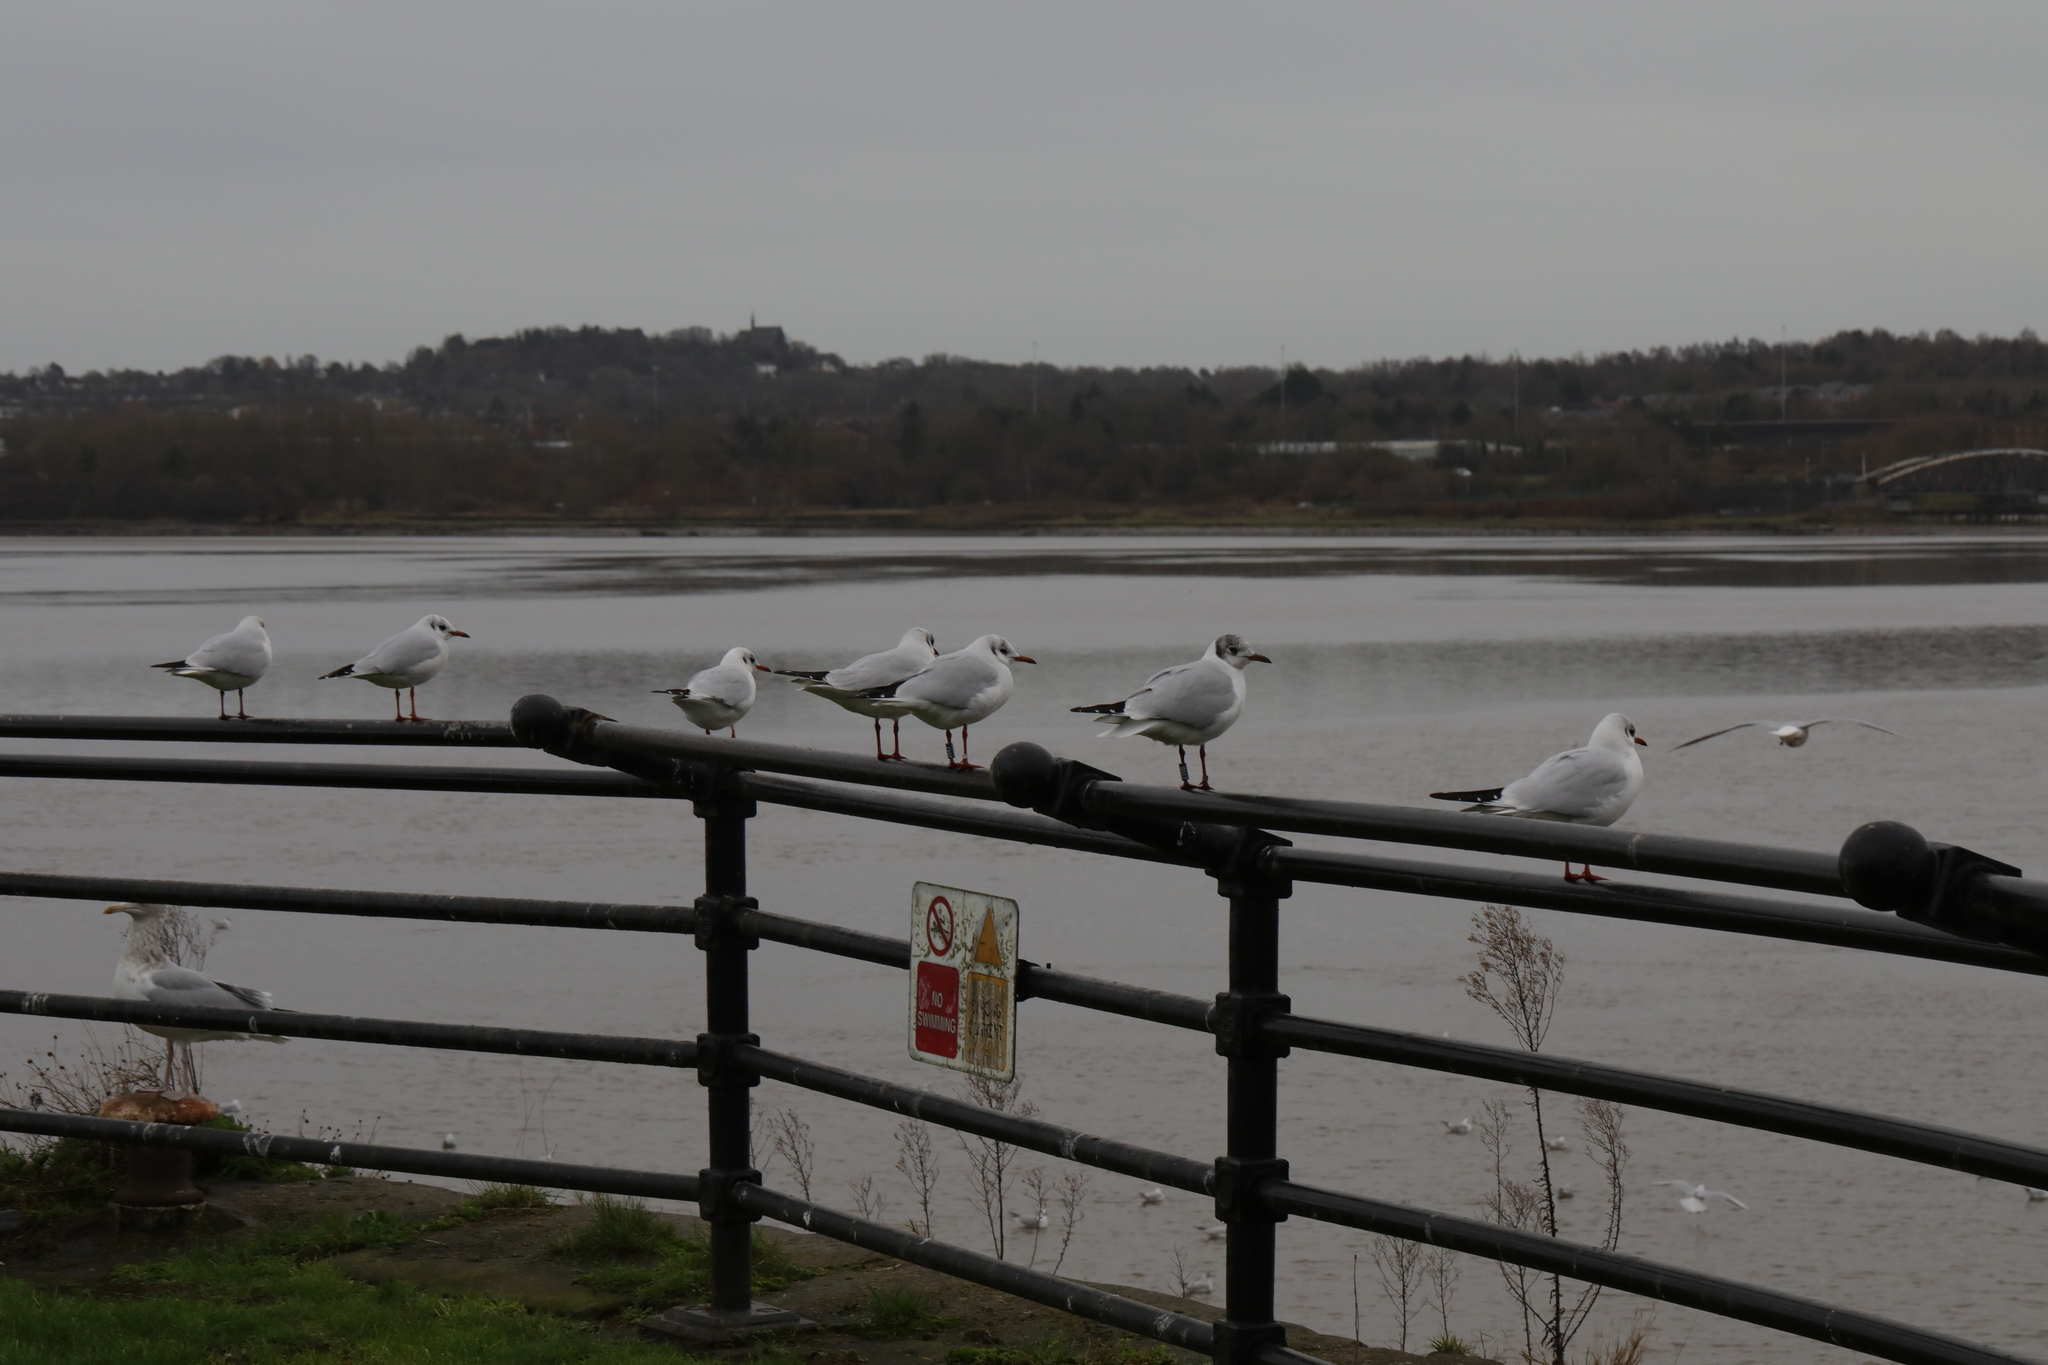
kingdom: Animalia
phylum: Chordata
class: Aves
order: Charadriiformes
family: Laridae
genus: Chroicocephalus
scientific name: Chroicocephalus ridibundus
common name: Black-headed gull
